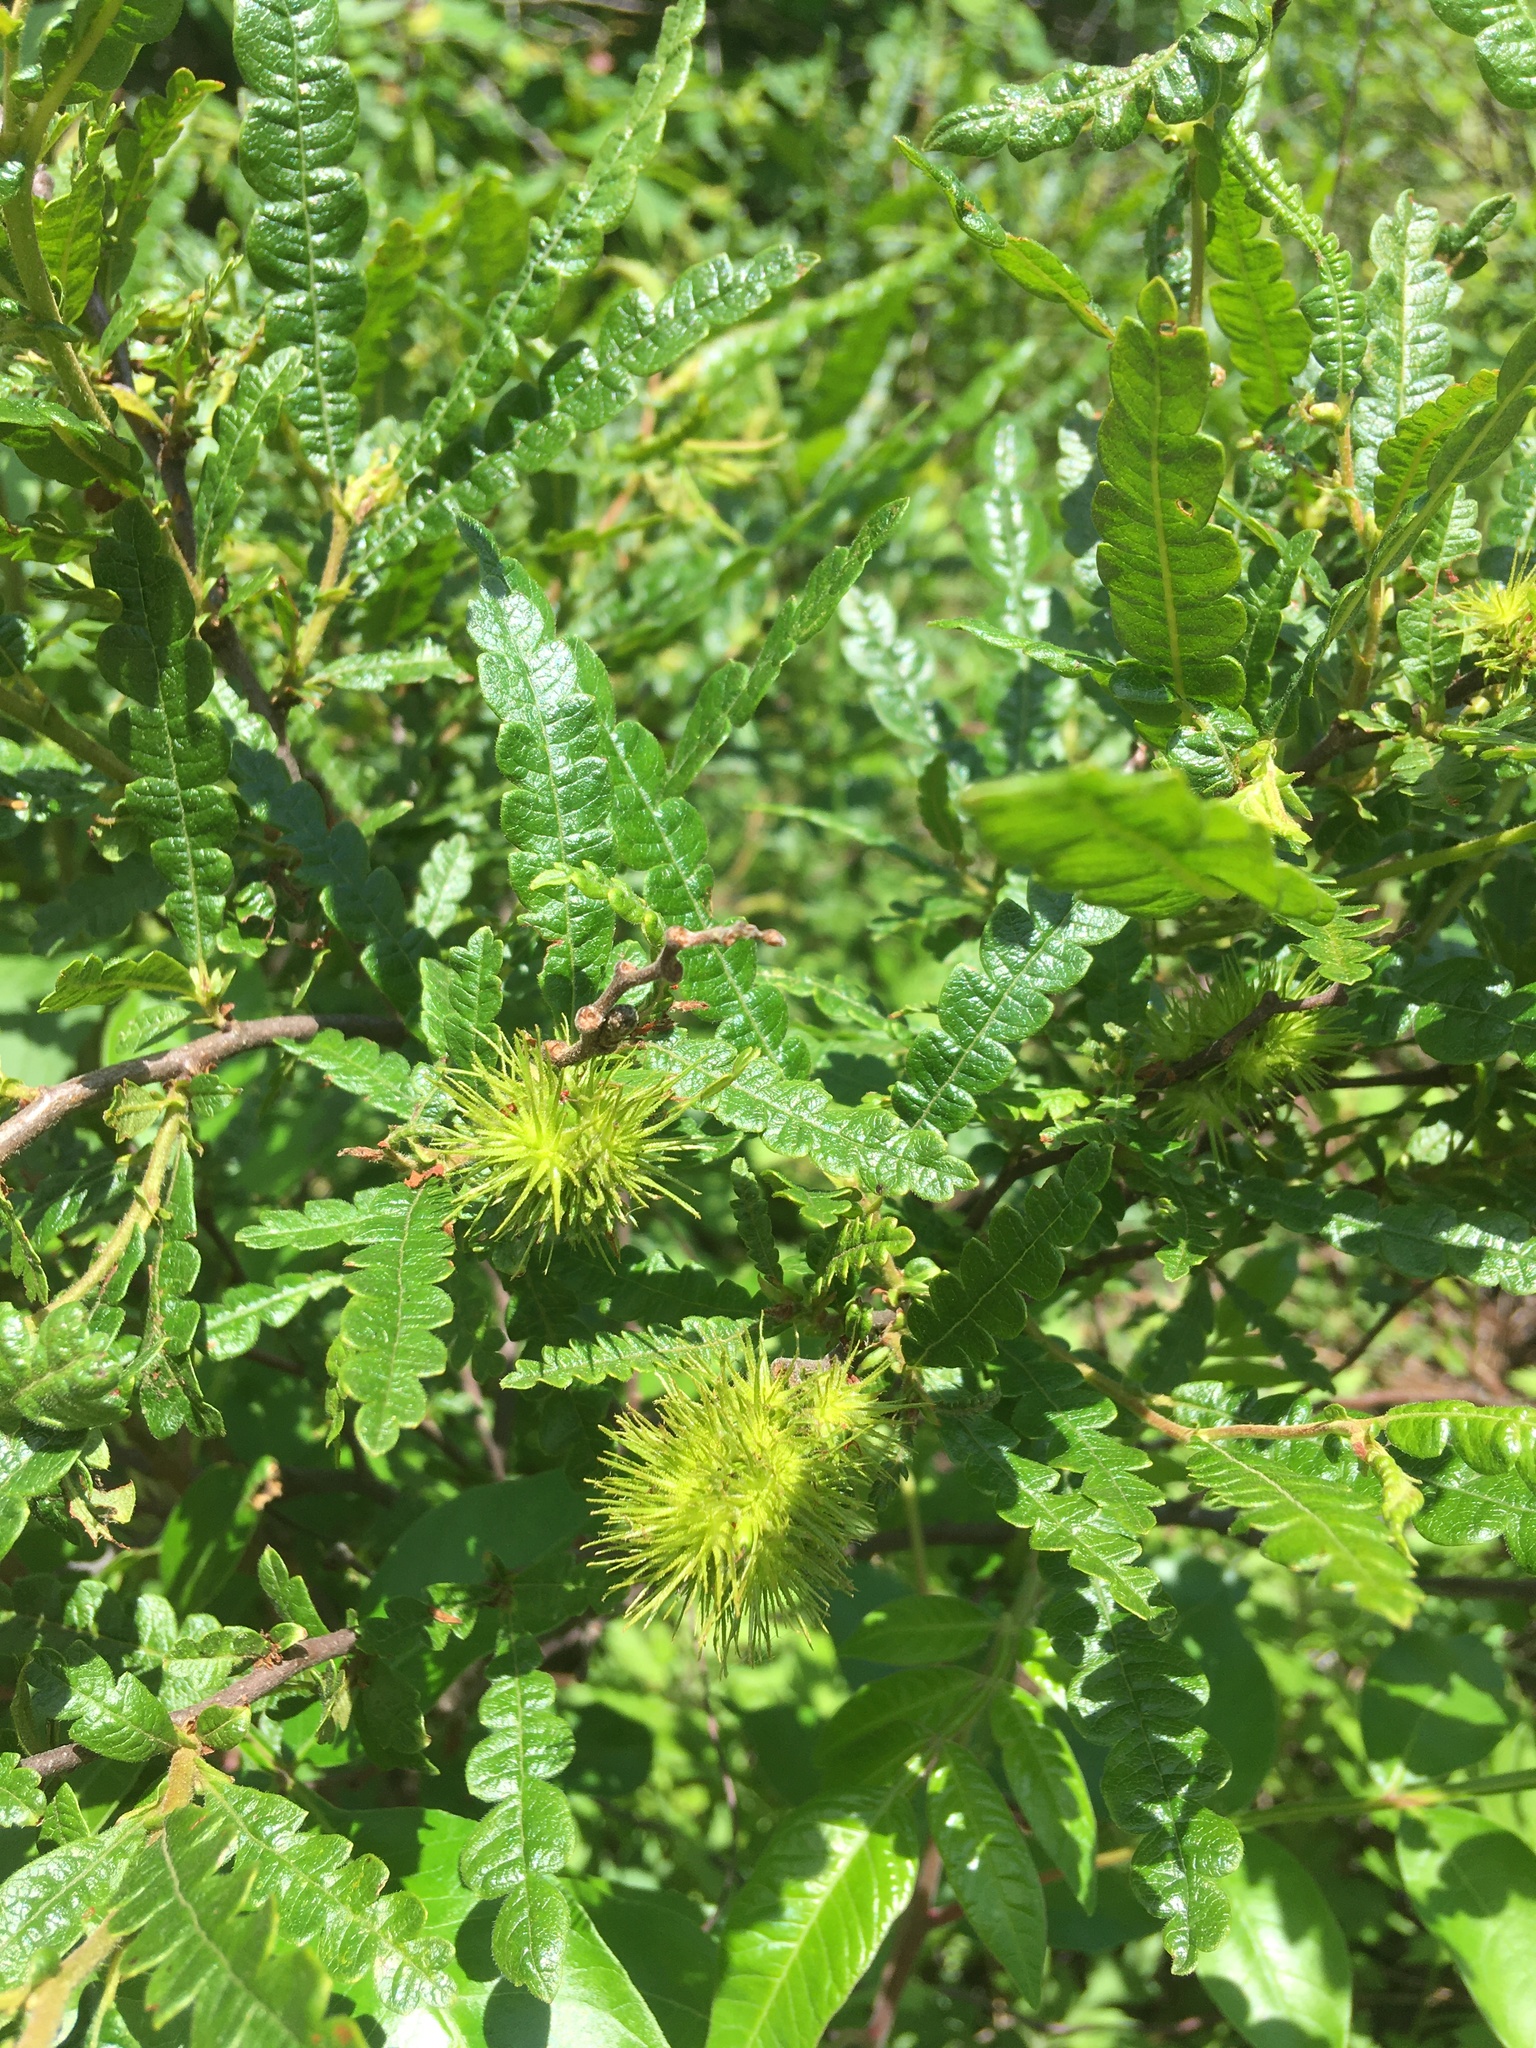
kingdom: Plantae
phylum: Tracheophyta
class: Magnoliopsida
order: Fagales
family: Myricaceae
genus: Comptonia
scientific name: Comptonia peregrina
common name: Sweet-fern
